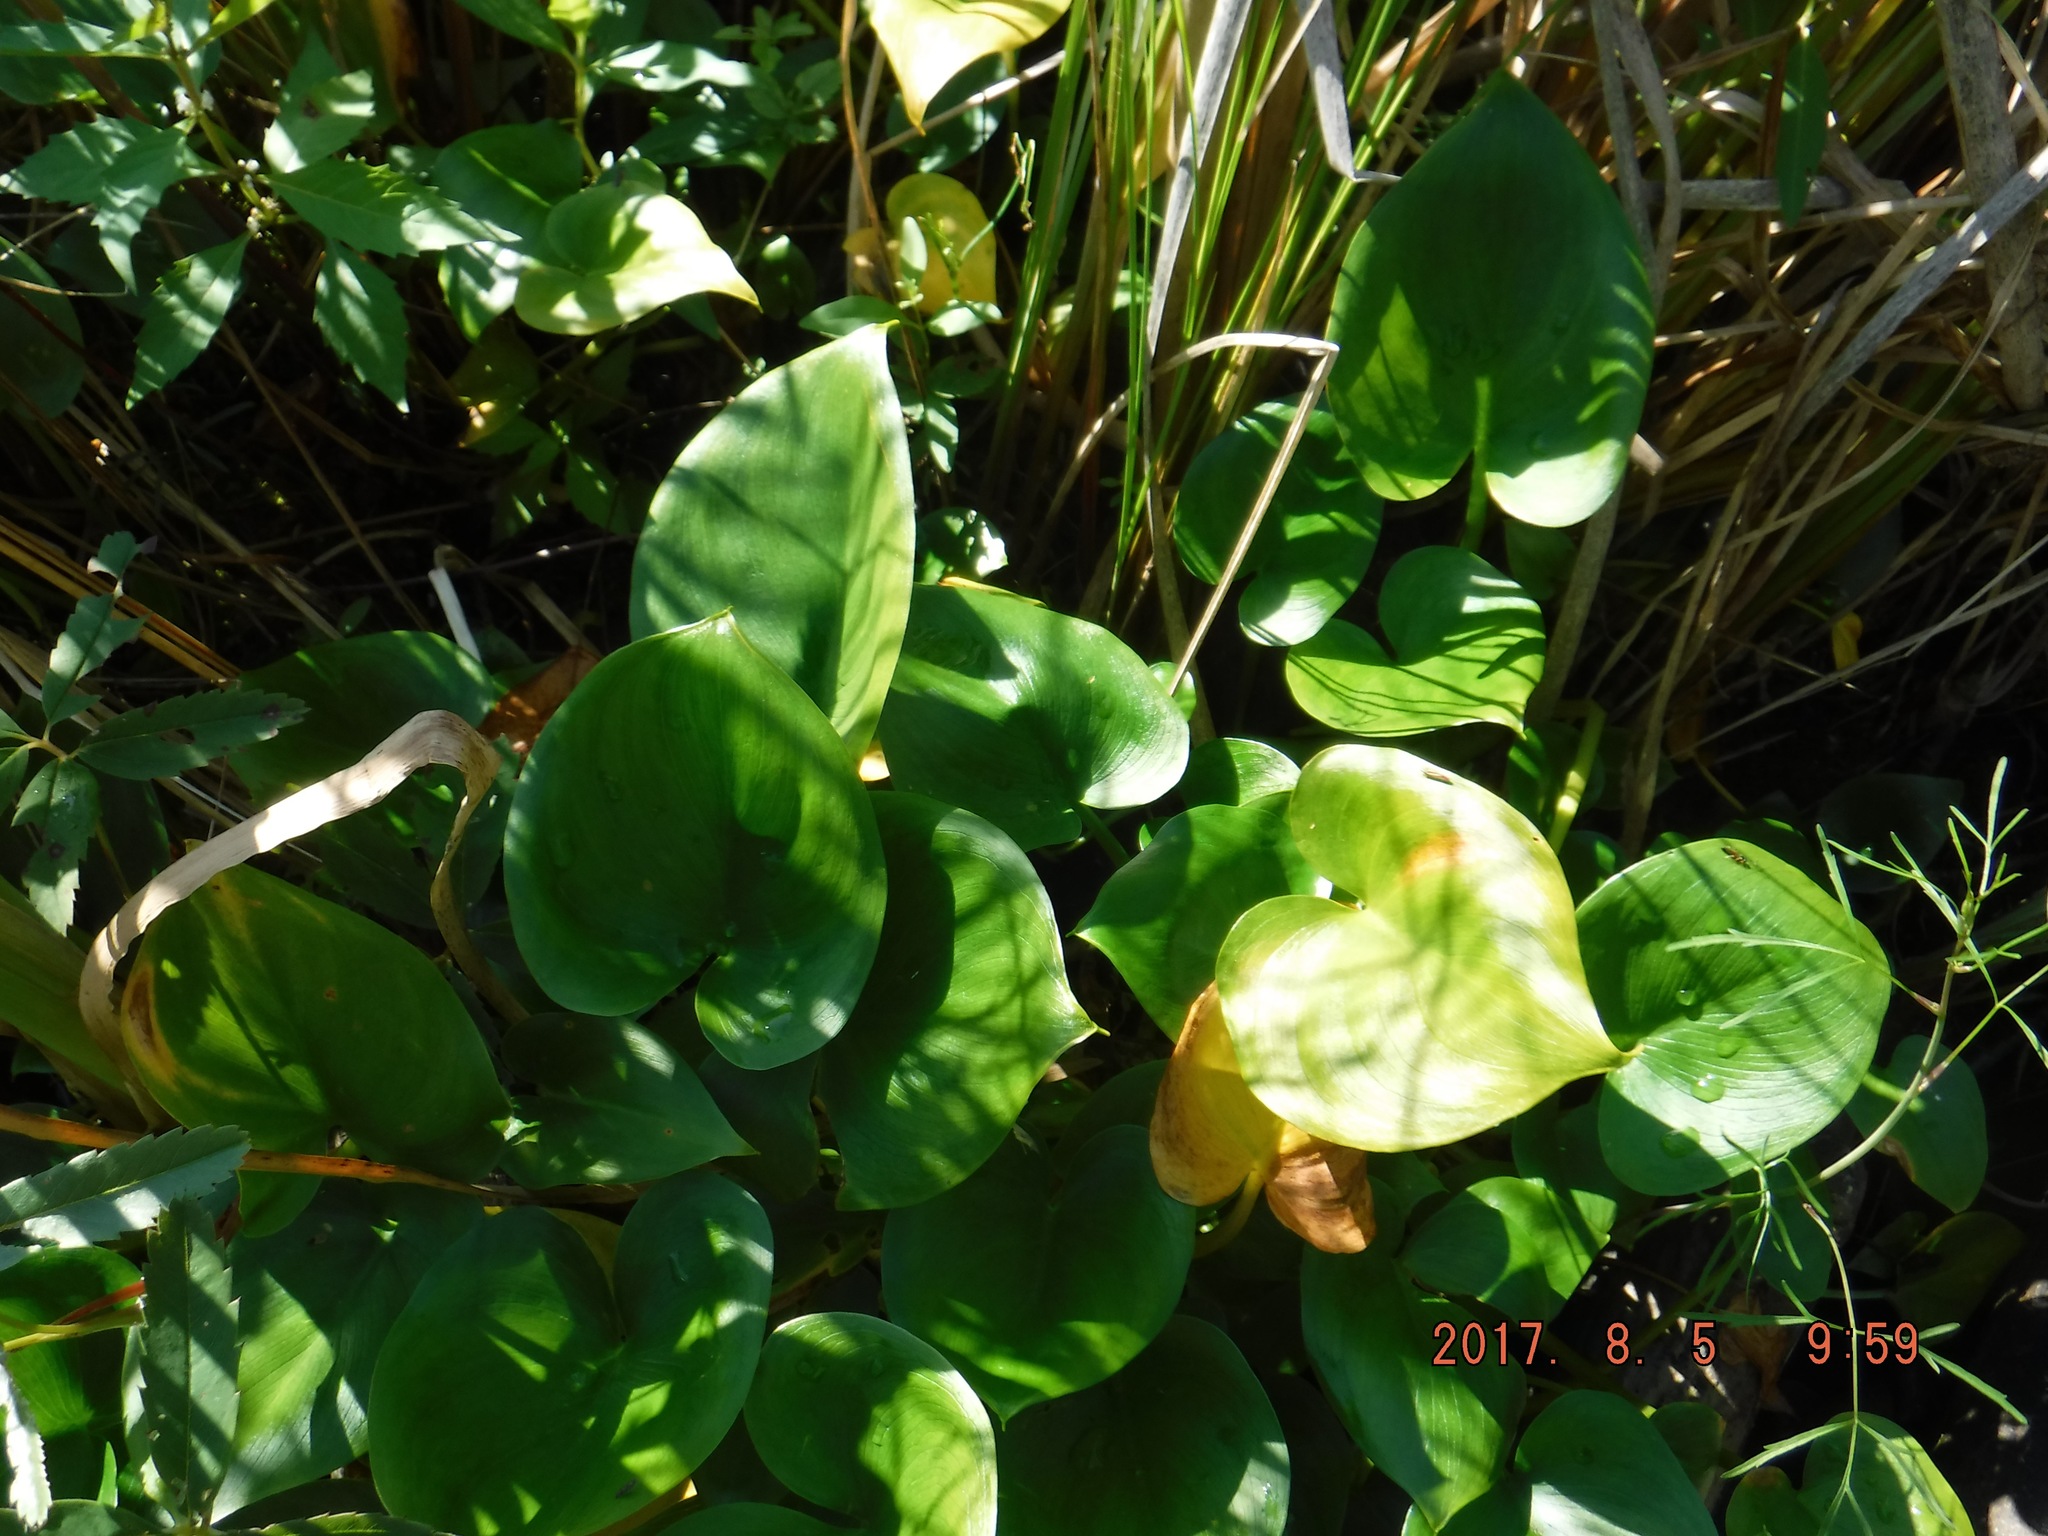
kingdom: Plantae
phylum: Tracheophyta
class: Liliopsida
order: Alismatales
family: Araceae
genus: Calla
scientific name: Calla palustris
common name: Bog arum
